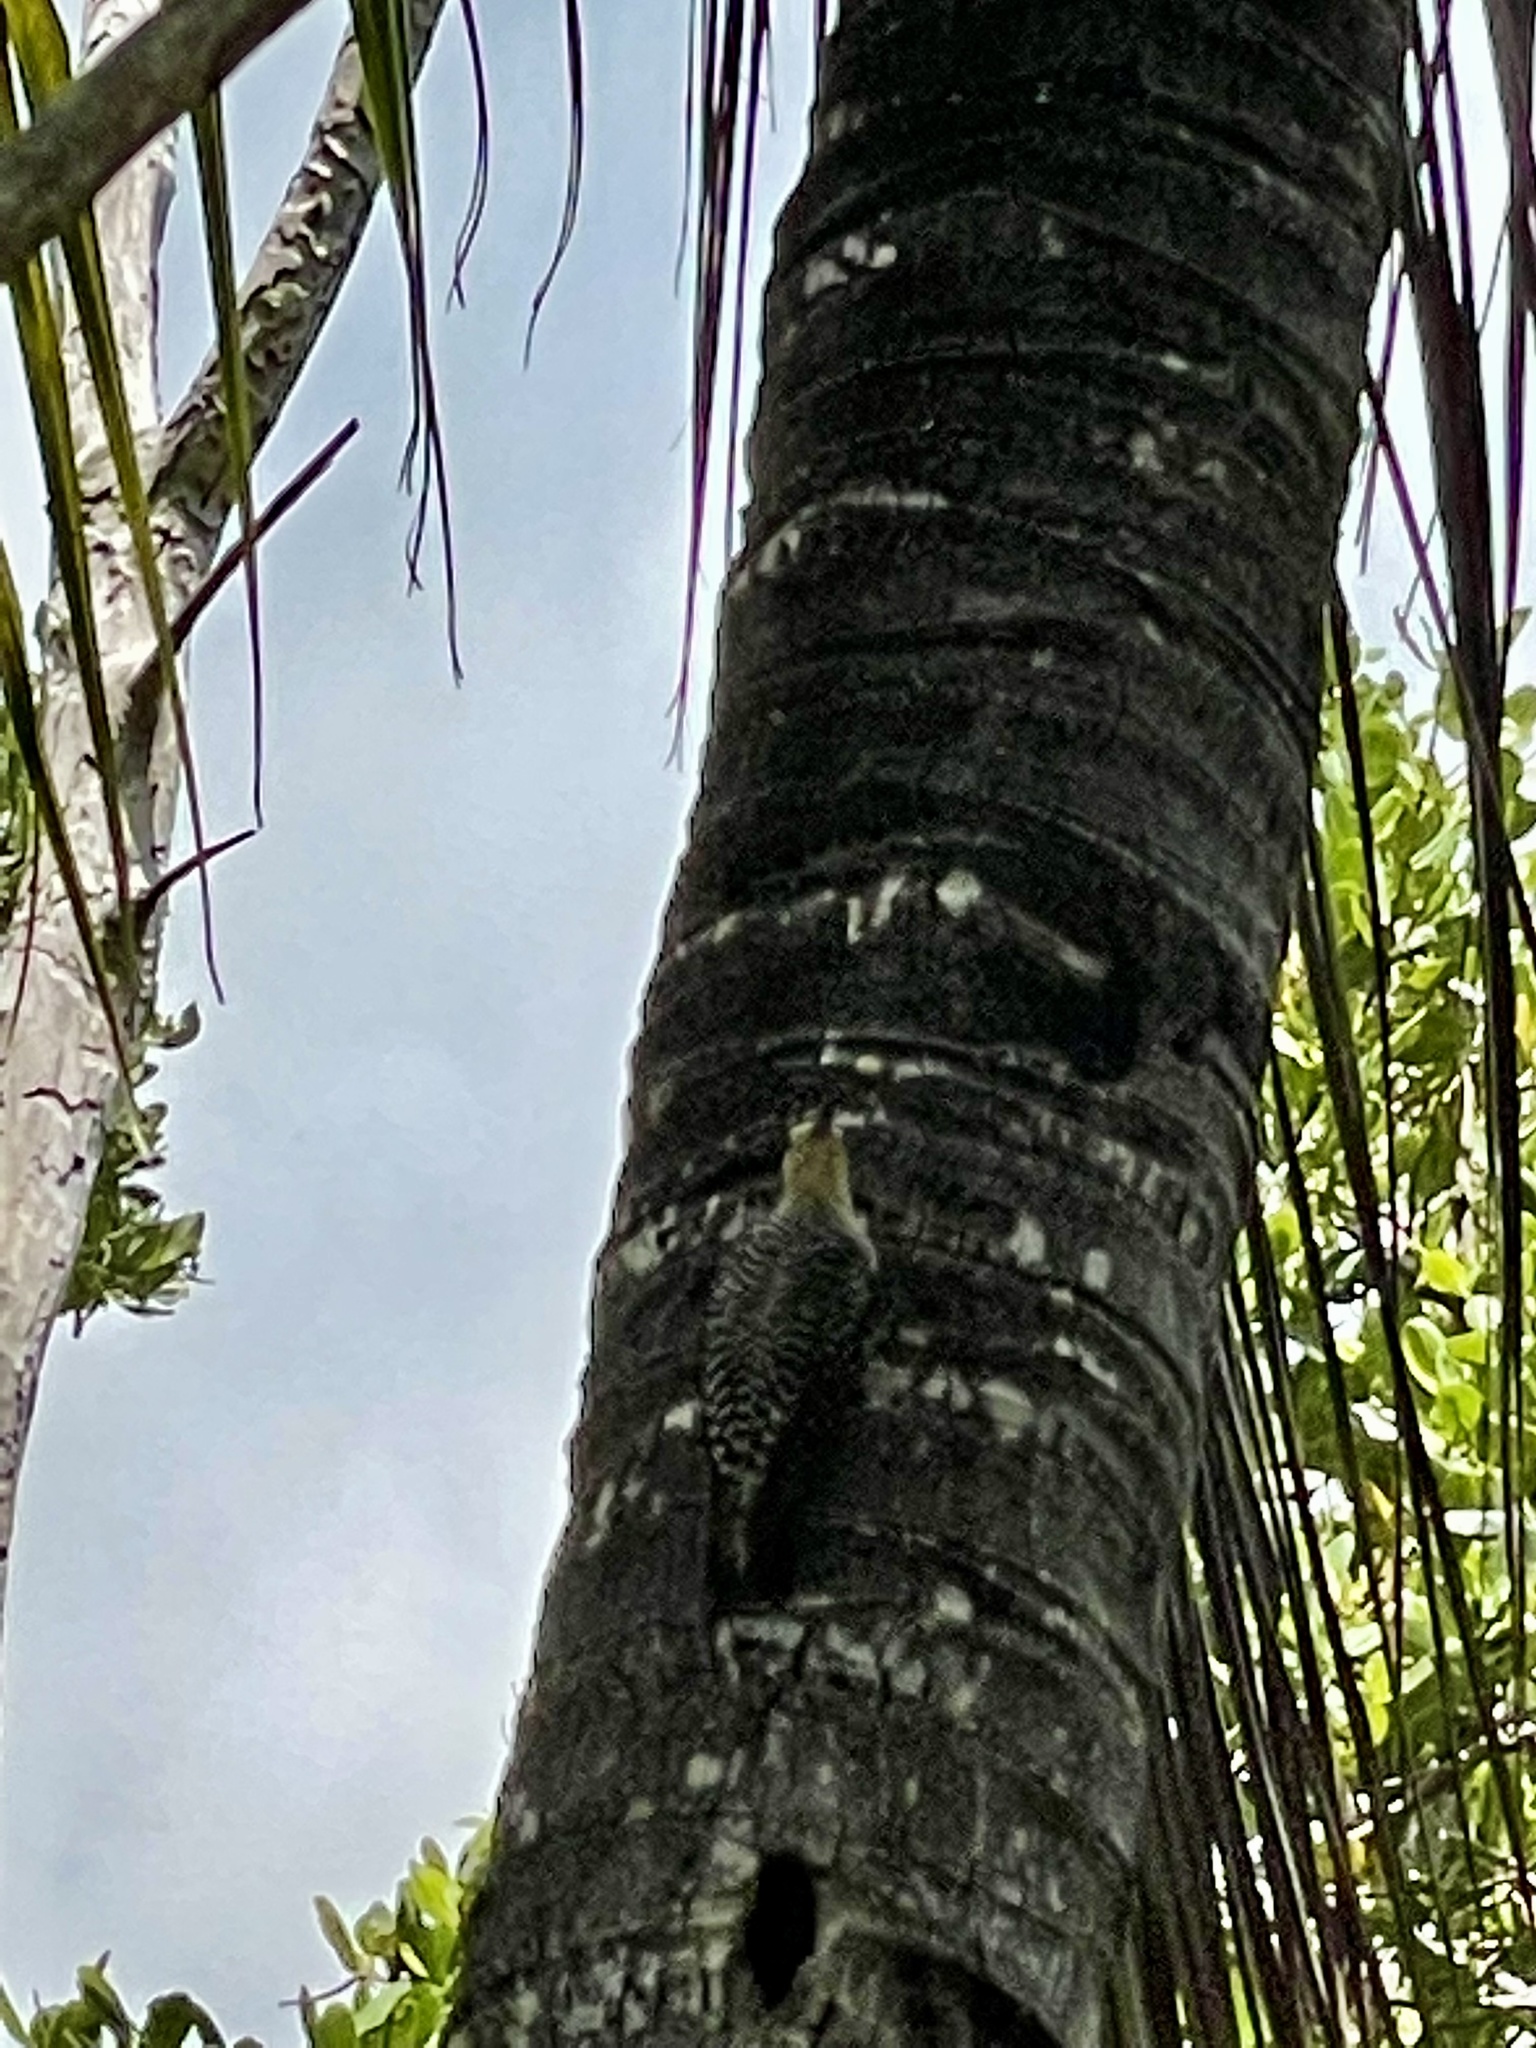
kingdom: Animalia
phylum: Chordata
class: Aves
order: Piciformes
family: Picidae
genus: Melanerpes
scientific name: Melanerpes carolinus
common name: Red-bellied woodpecker
